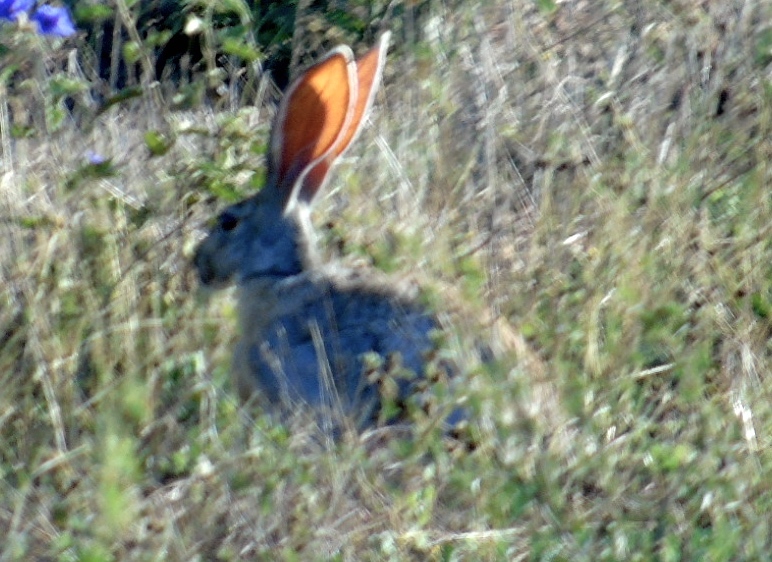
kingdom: Animalia
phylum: Chordata
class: Mammalia
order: Lagomorpha
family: Leporidae
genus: Lepus
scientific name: Lepus alleni
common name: Antelope jackrabbit
